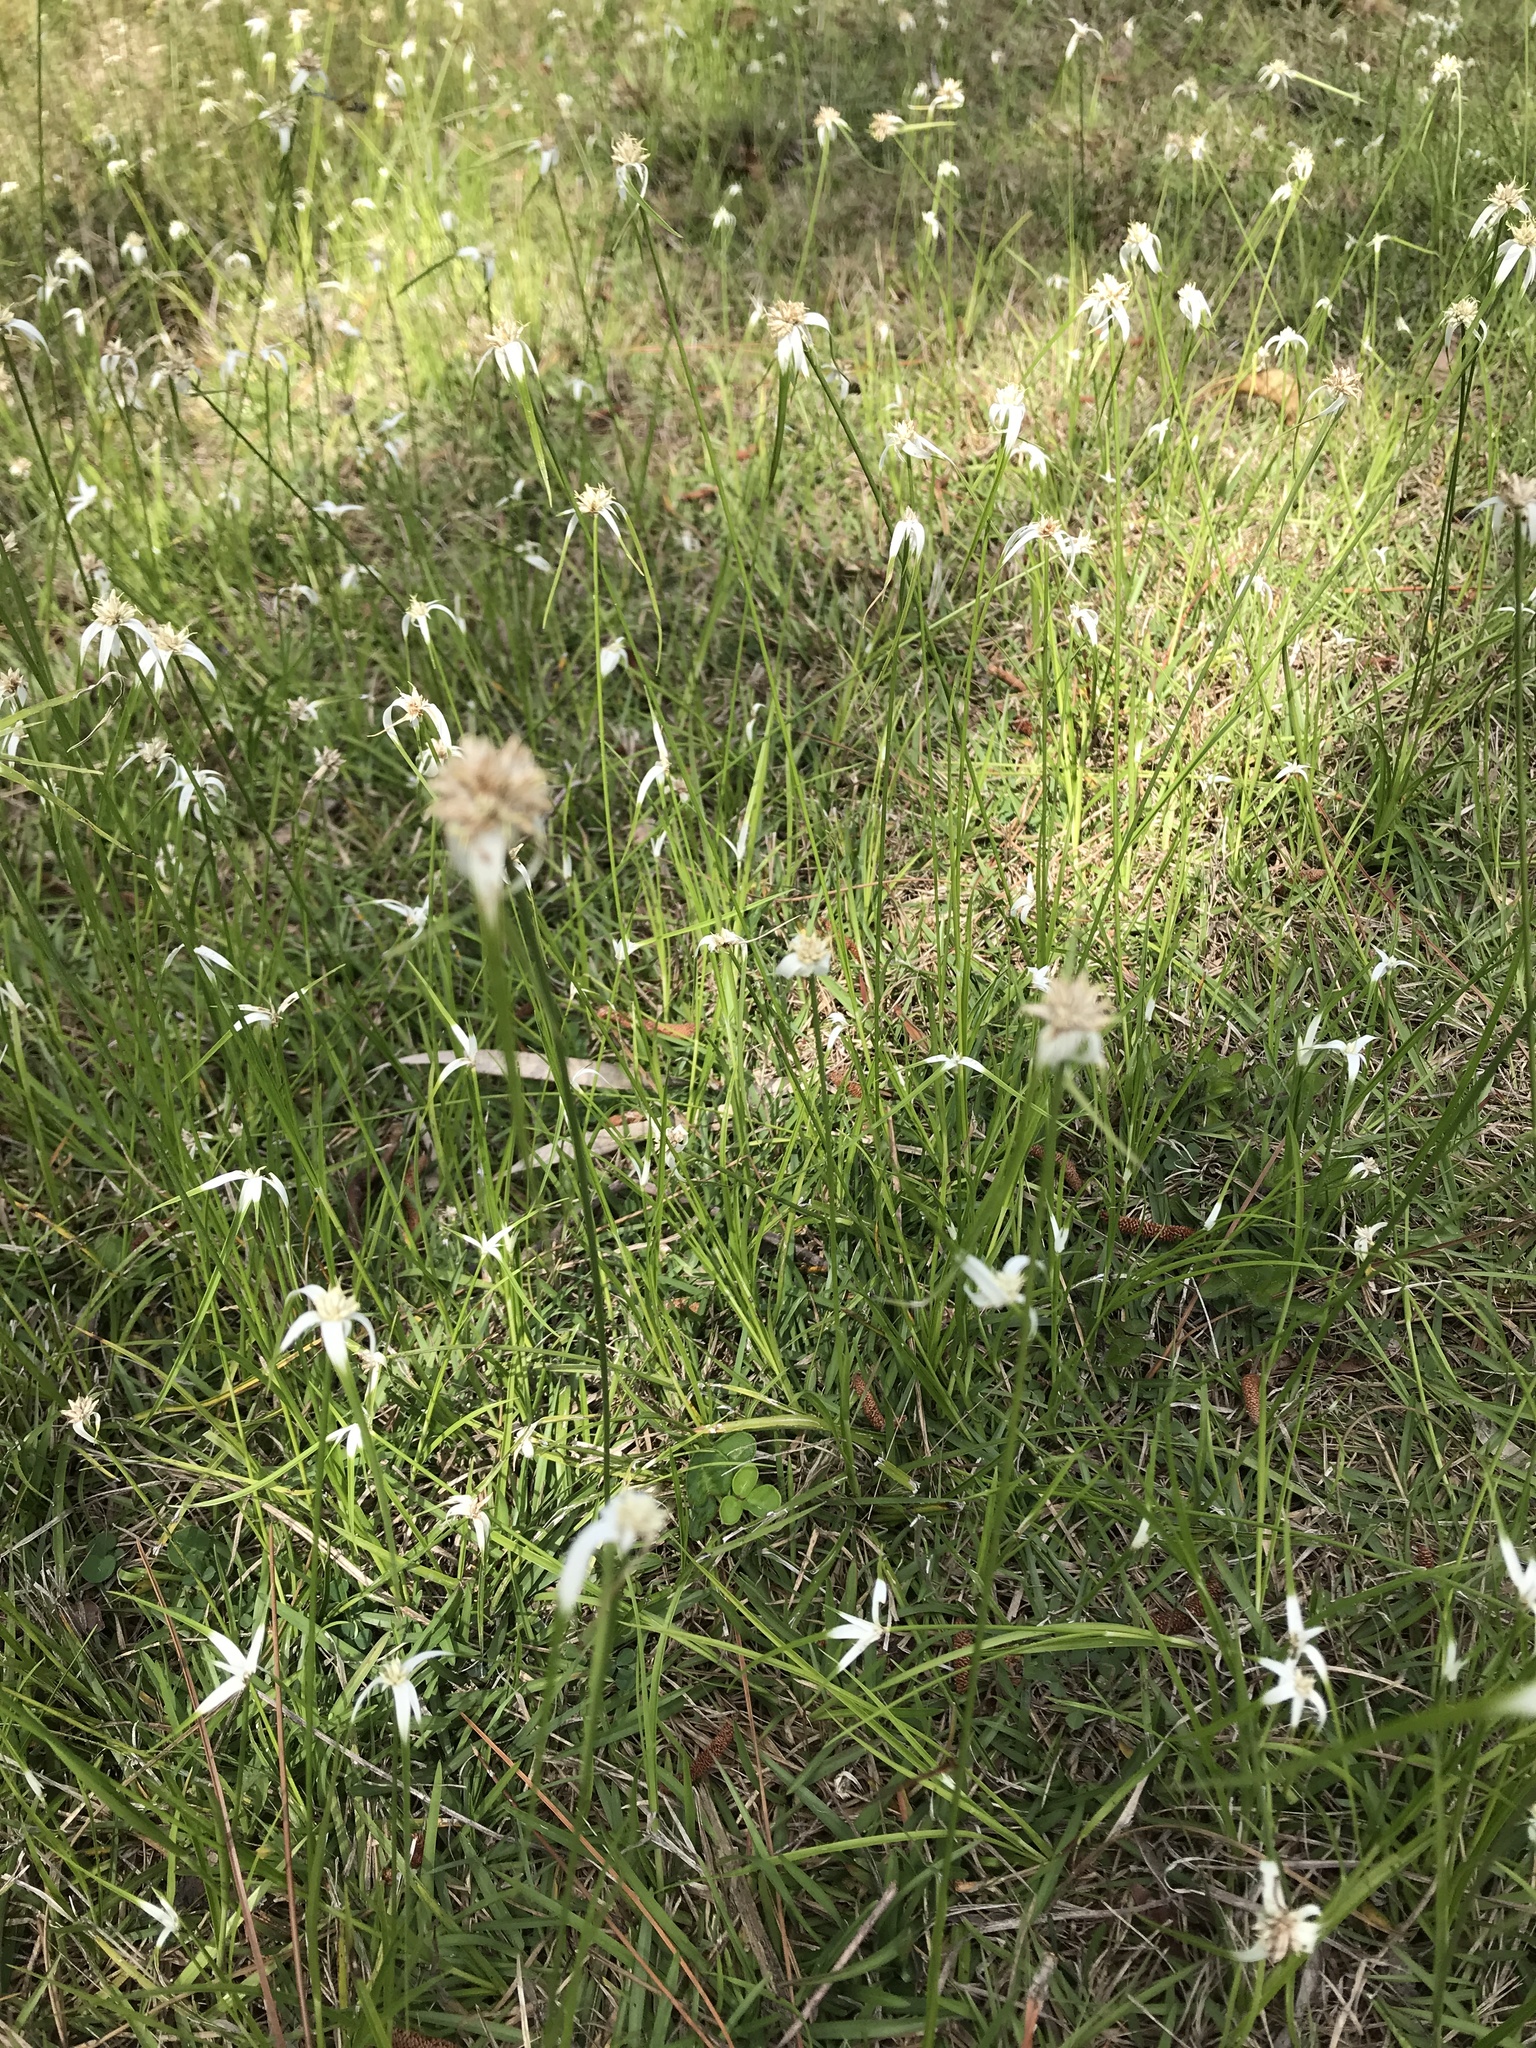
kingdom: Plantae
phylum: Tracheophyta
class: Liliopsida
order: Poales
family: Cyperaceae
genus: Rhynchospora
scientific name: Rhynchospora colorata
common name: Star sedge
